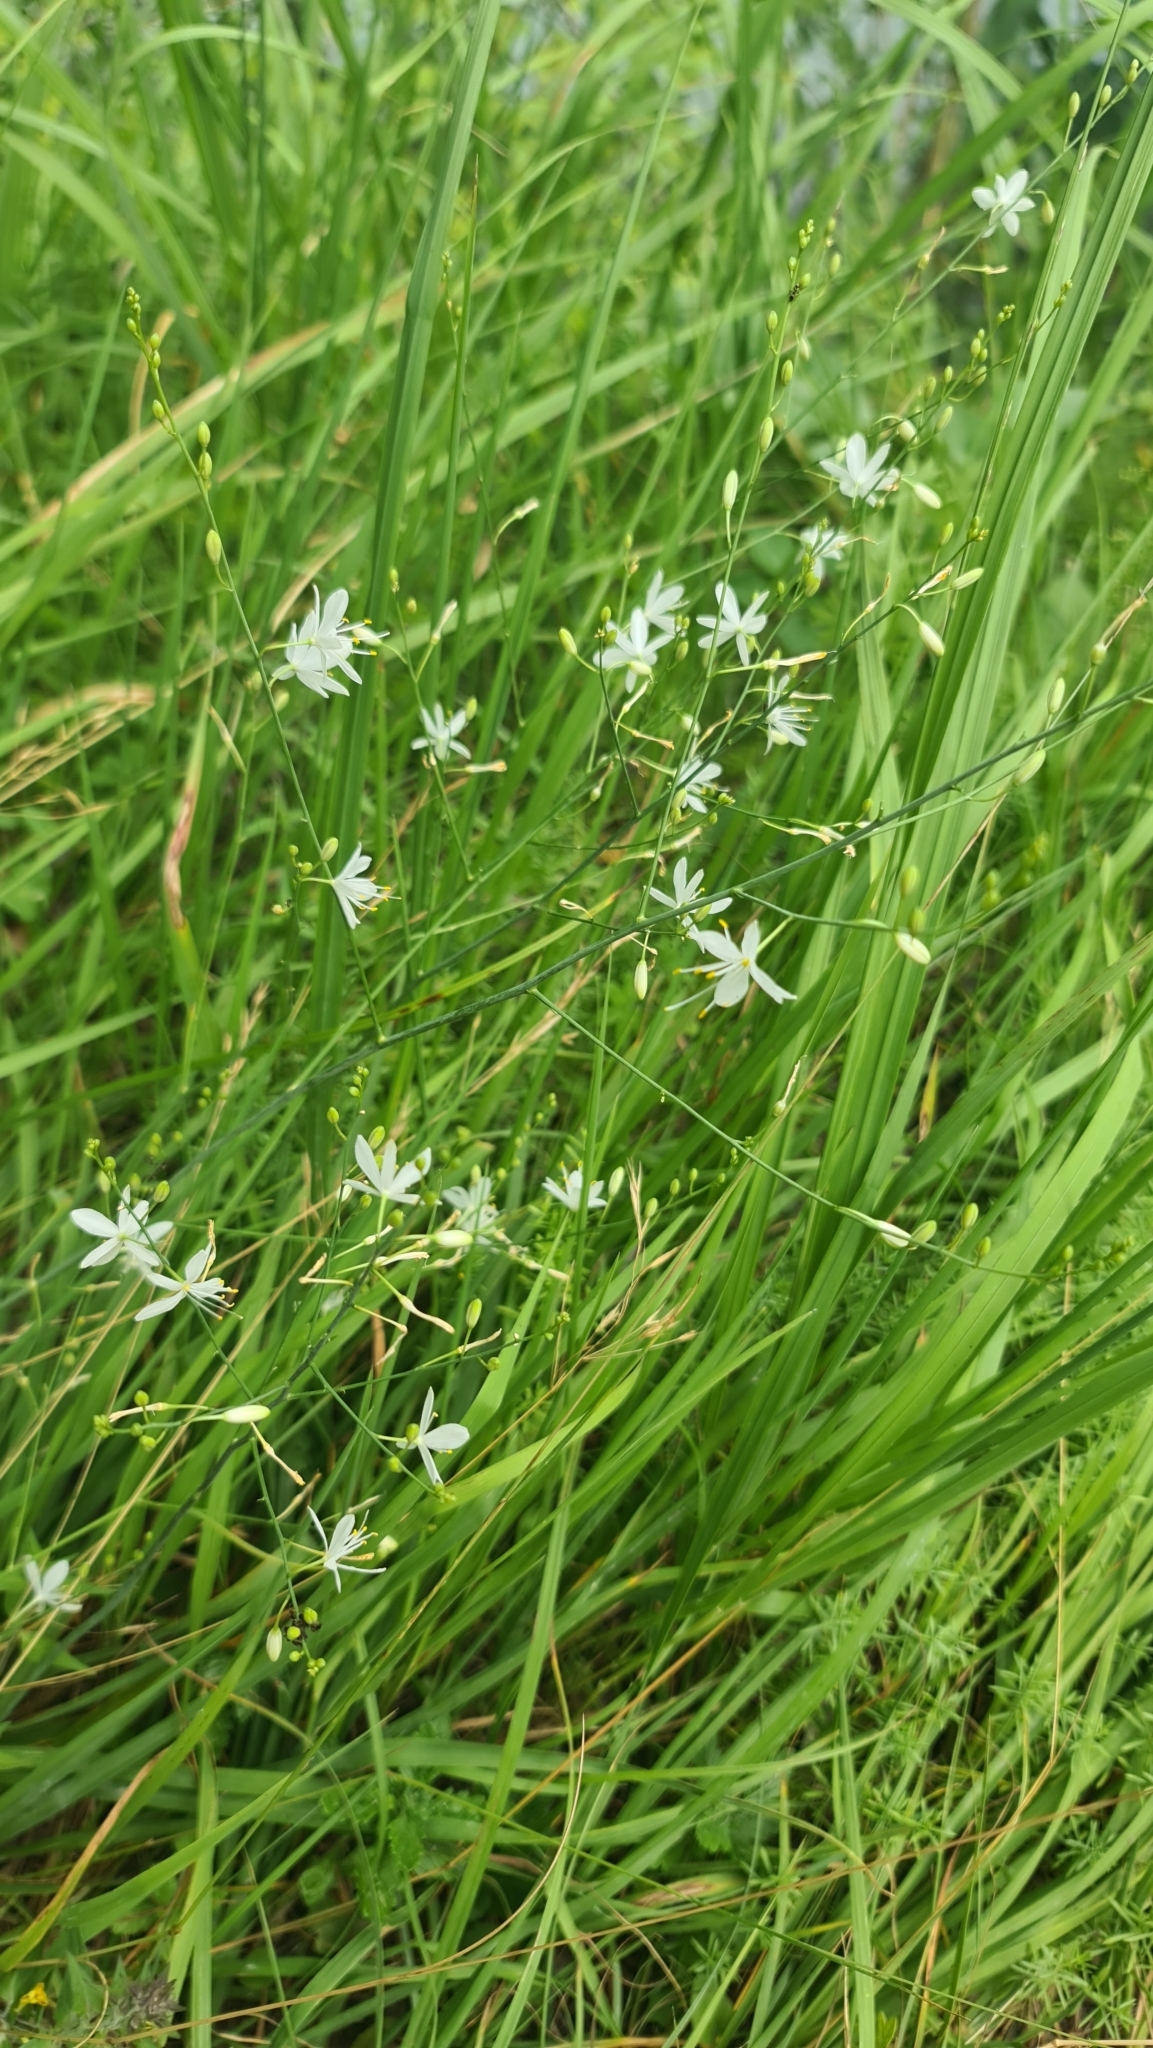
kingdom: Plantae
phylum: Tracheophyta
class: Liliopsida
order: Asparagales
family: Asparagaceae
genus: Anthericum
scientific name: Anthericum ramosum
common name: Branched st. bernard's-lily
